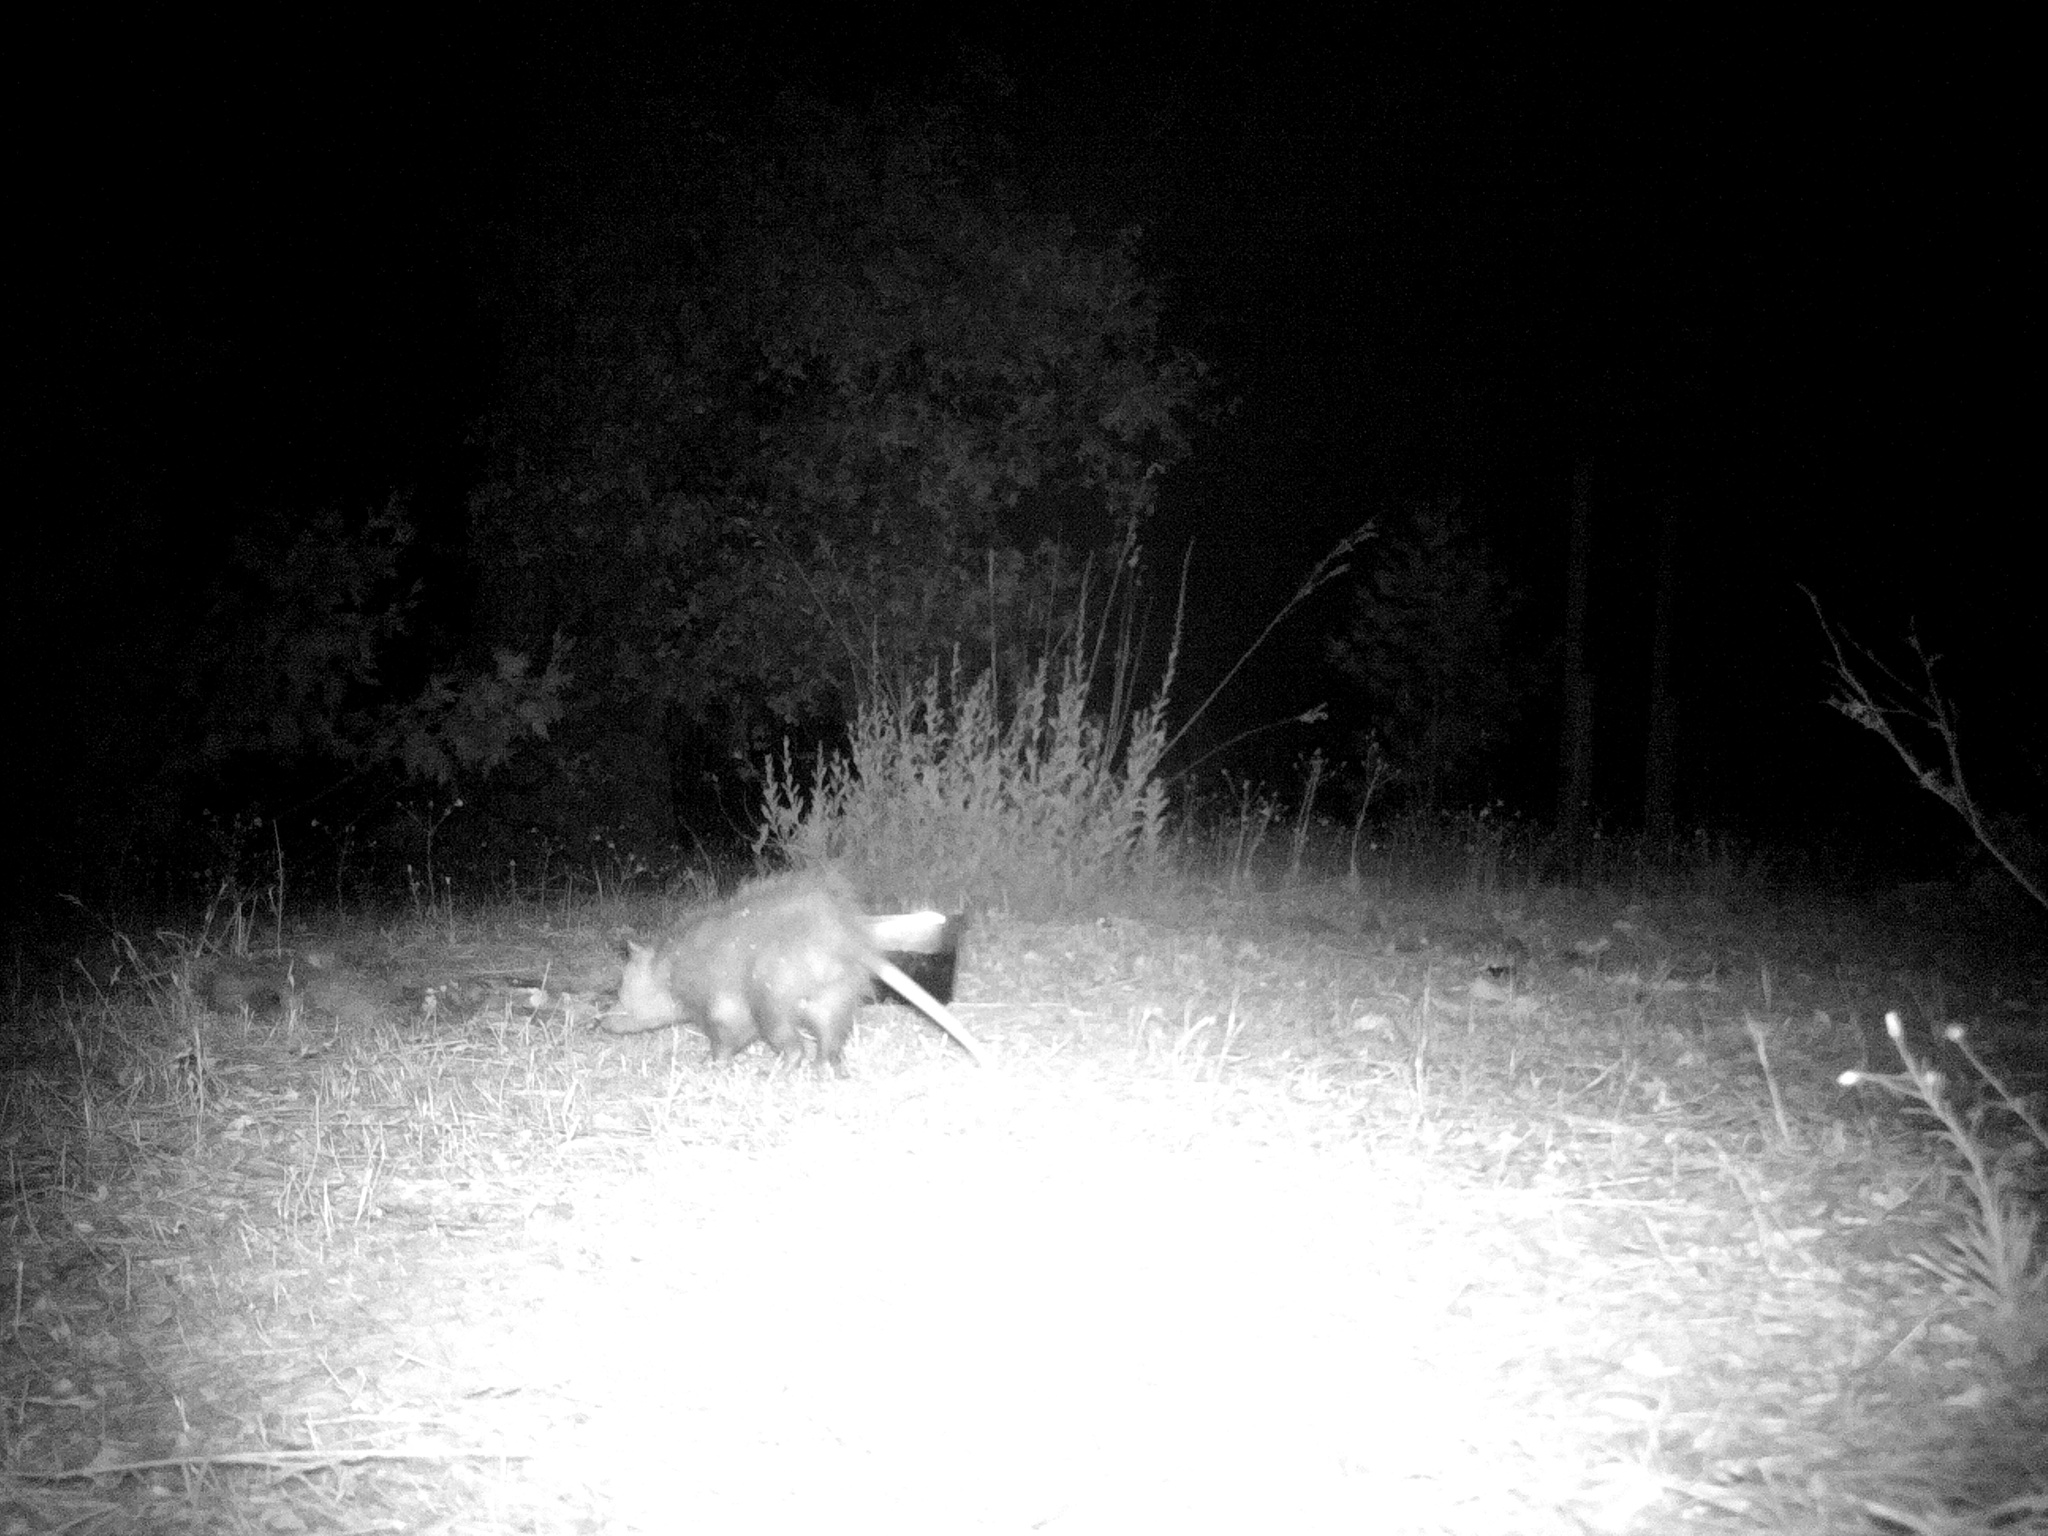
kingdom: Animalia
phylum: Chordata
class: Mammalia
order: Didelphimorphia
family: Didelphidae
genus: Didelphis
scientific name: Didelphis virginiana
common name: Virginia opossum
